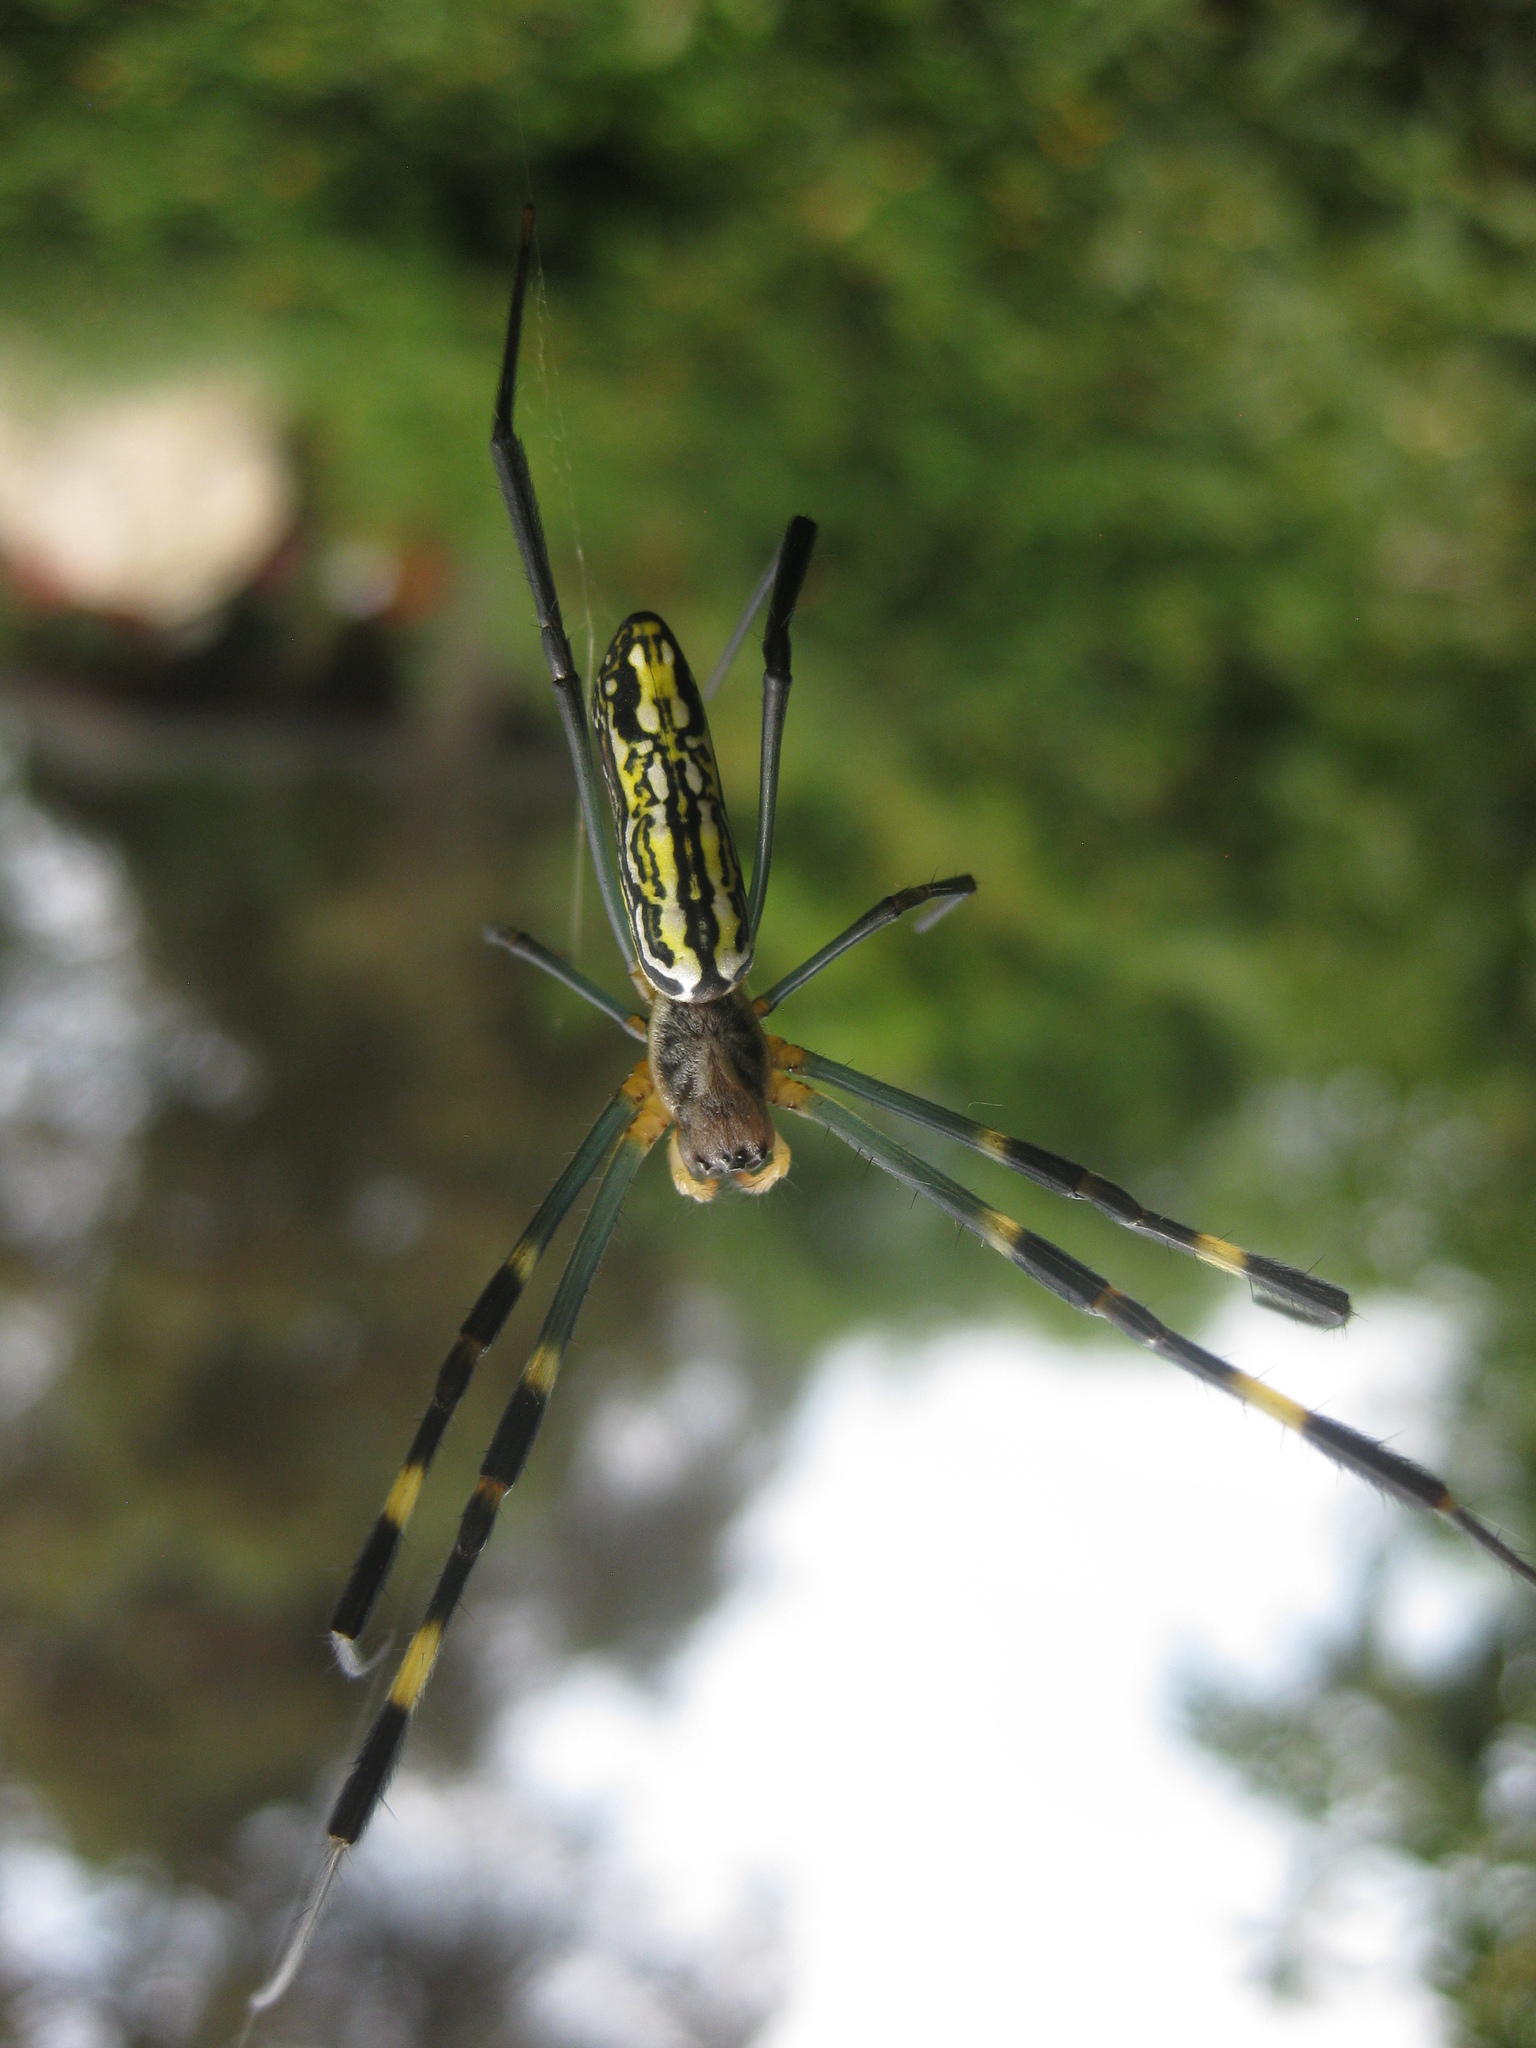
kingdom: Animalia
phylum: Arthropoda
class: Arachnida
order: Araneae
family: Araneidae
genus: Trichonephila
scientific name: Trichonephila clavata
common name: Jorō spider
